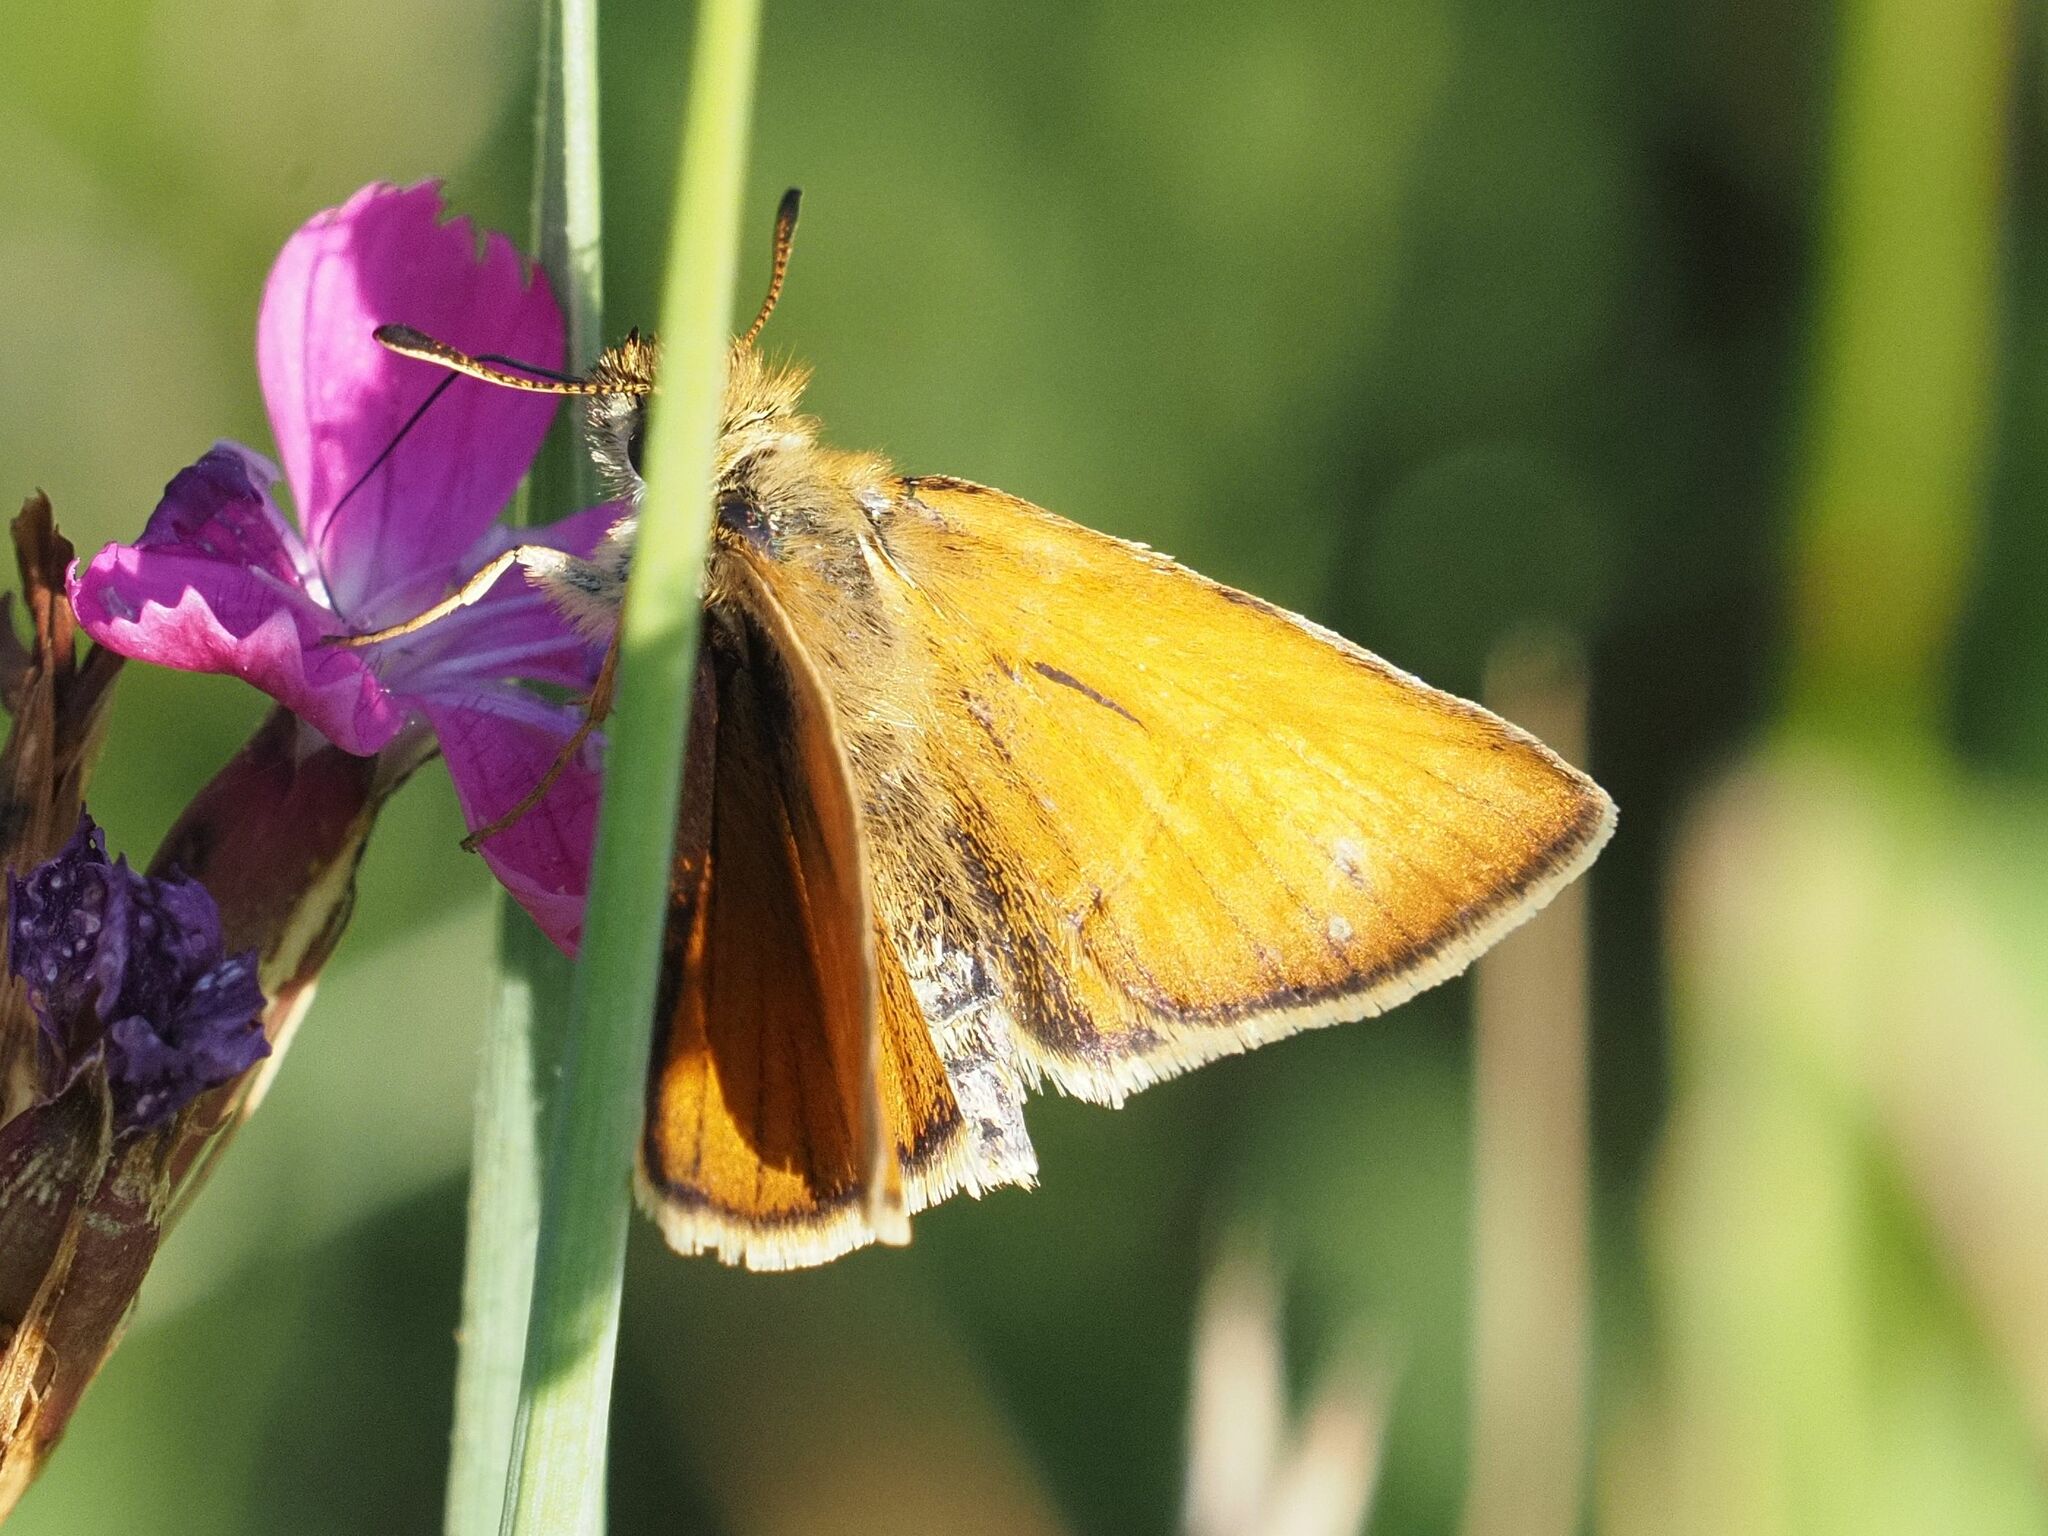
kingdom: Animalia
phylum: Arthropoda
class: Insecta
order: Lepidoptera
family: Hesperiidae
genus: Thymelicus
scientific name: Thymelicus lineola
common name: Essex skipper
